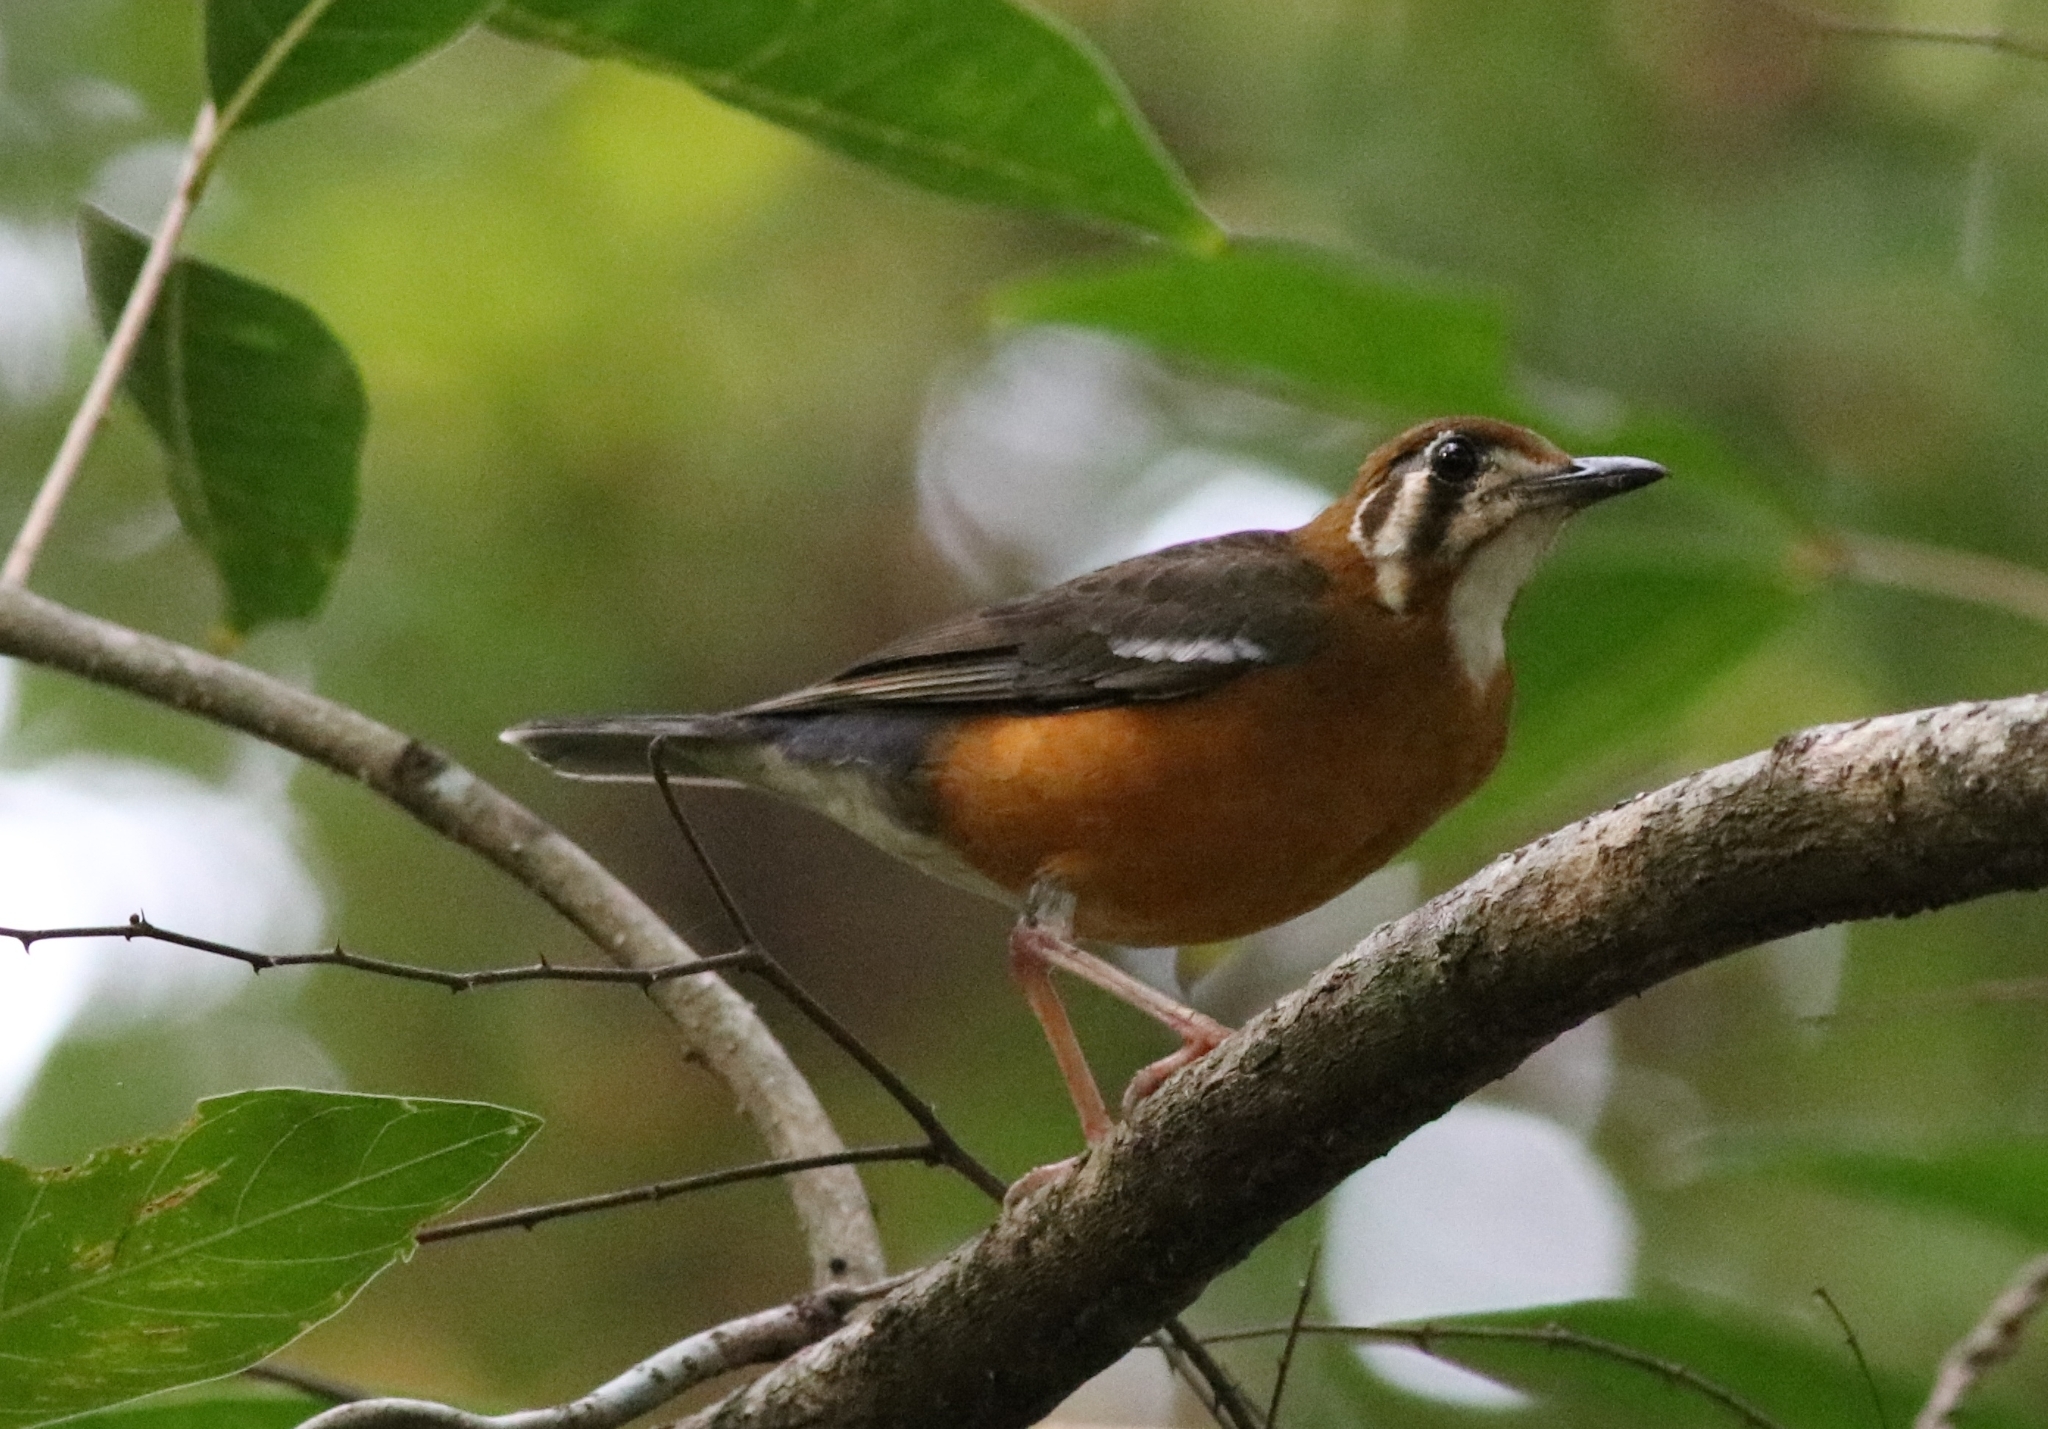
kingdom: Animalia
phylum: Chordata
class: Aves
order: Passeriformes
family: Turdidae
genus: Geokichla
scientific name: Geokichla citrina
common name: Orange-headed thrush
